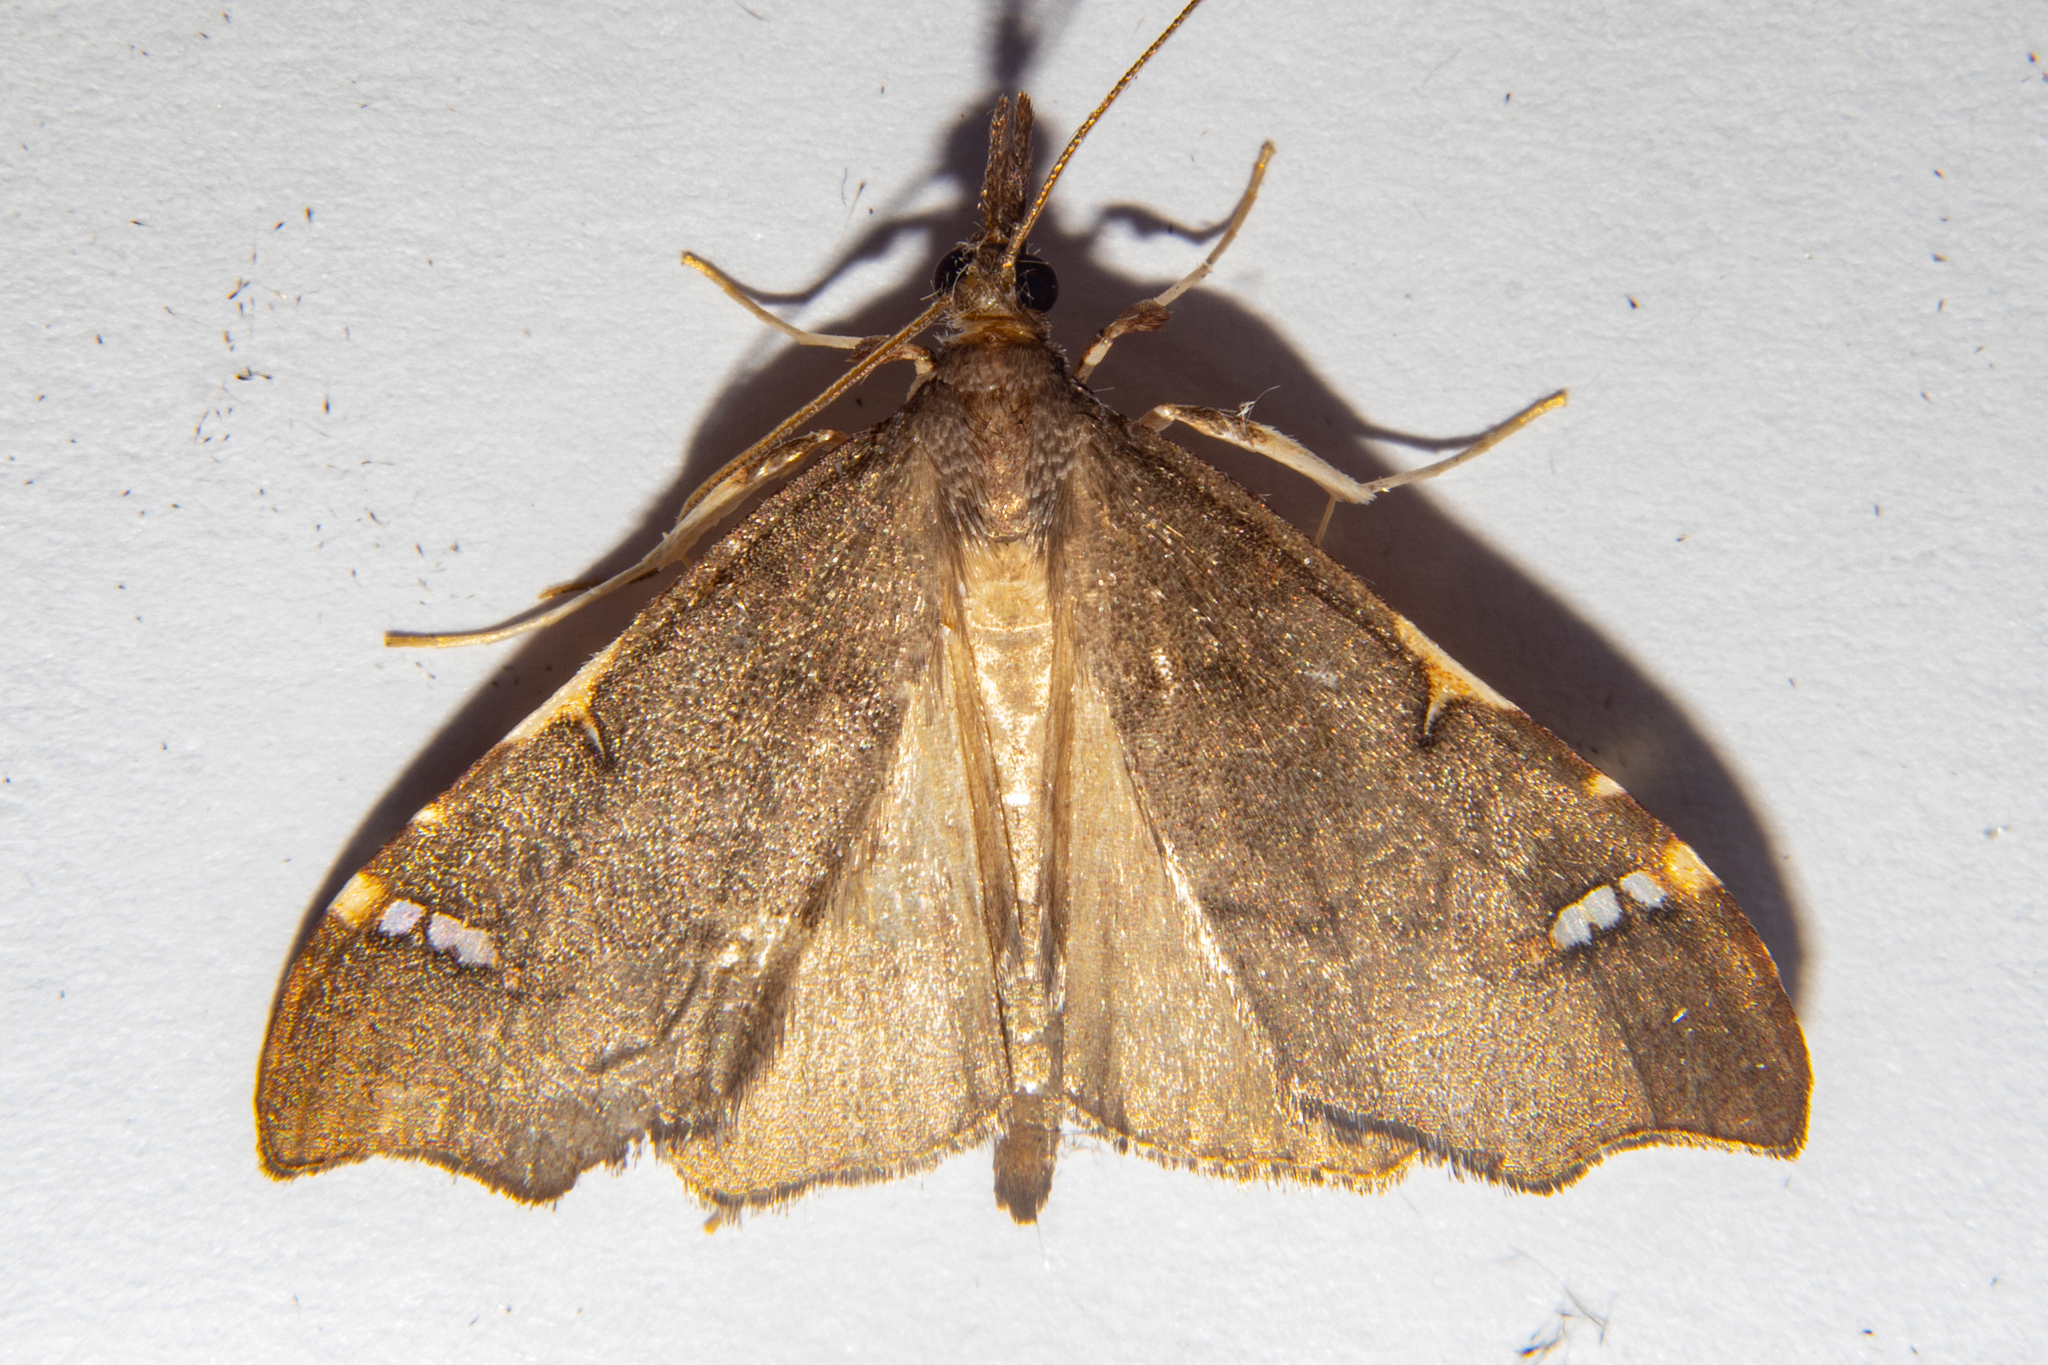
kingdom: Animalia
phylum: Arthropoda
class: Insecta
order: Lepidoptera
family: Crambidae
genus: Deana
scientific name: Deana hybreasalis
